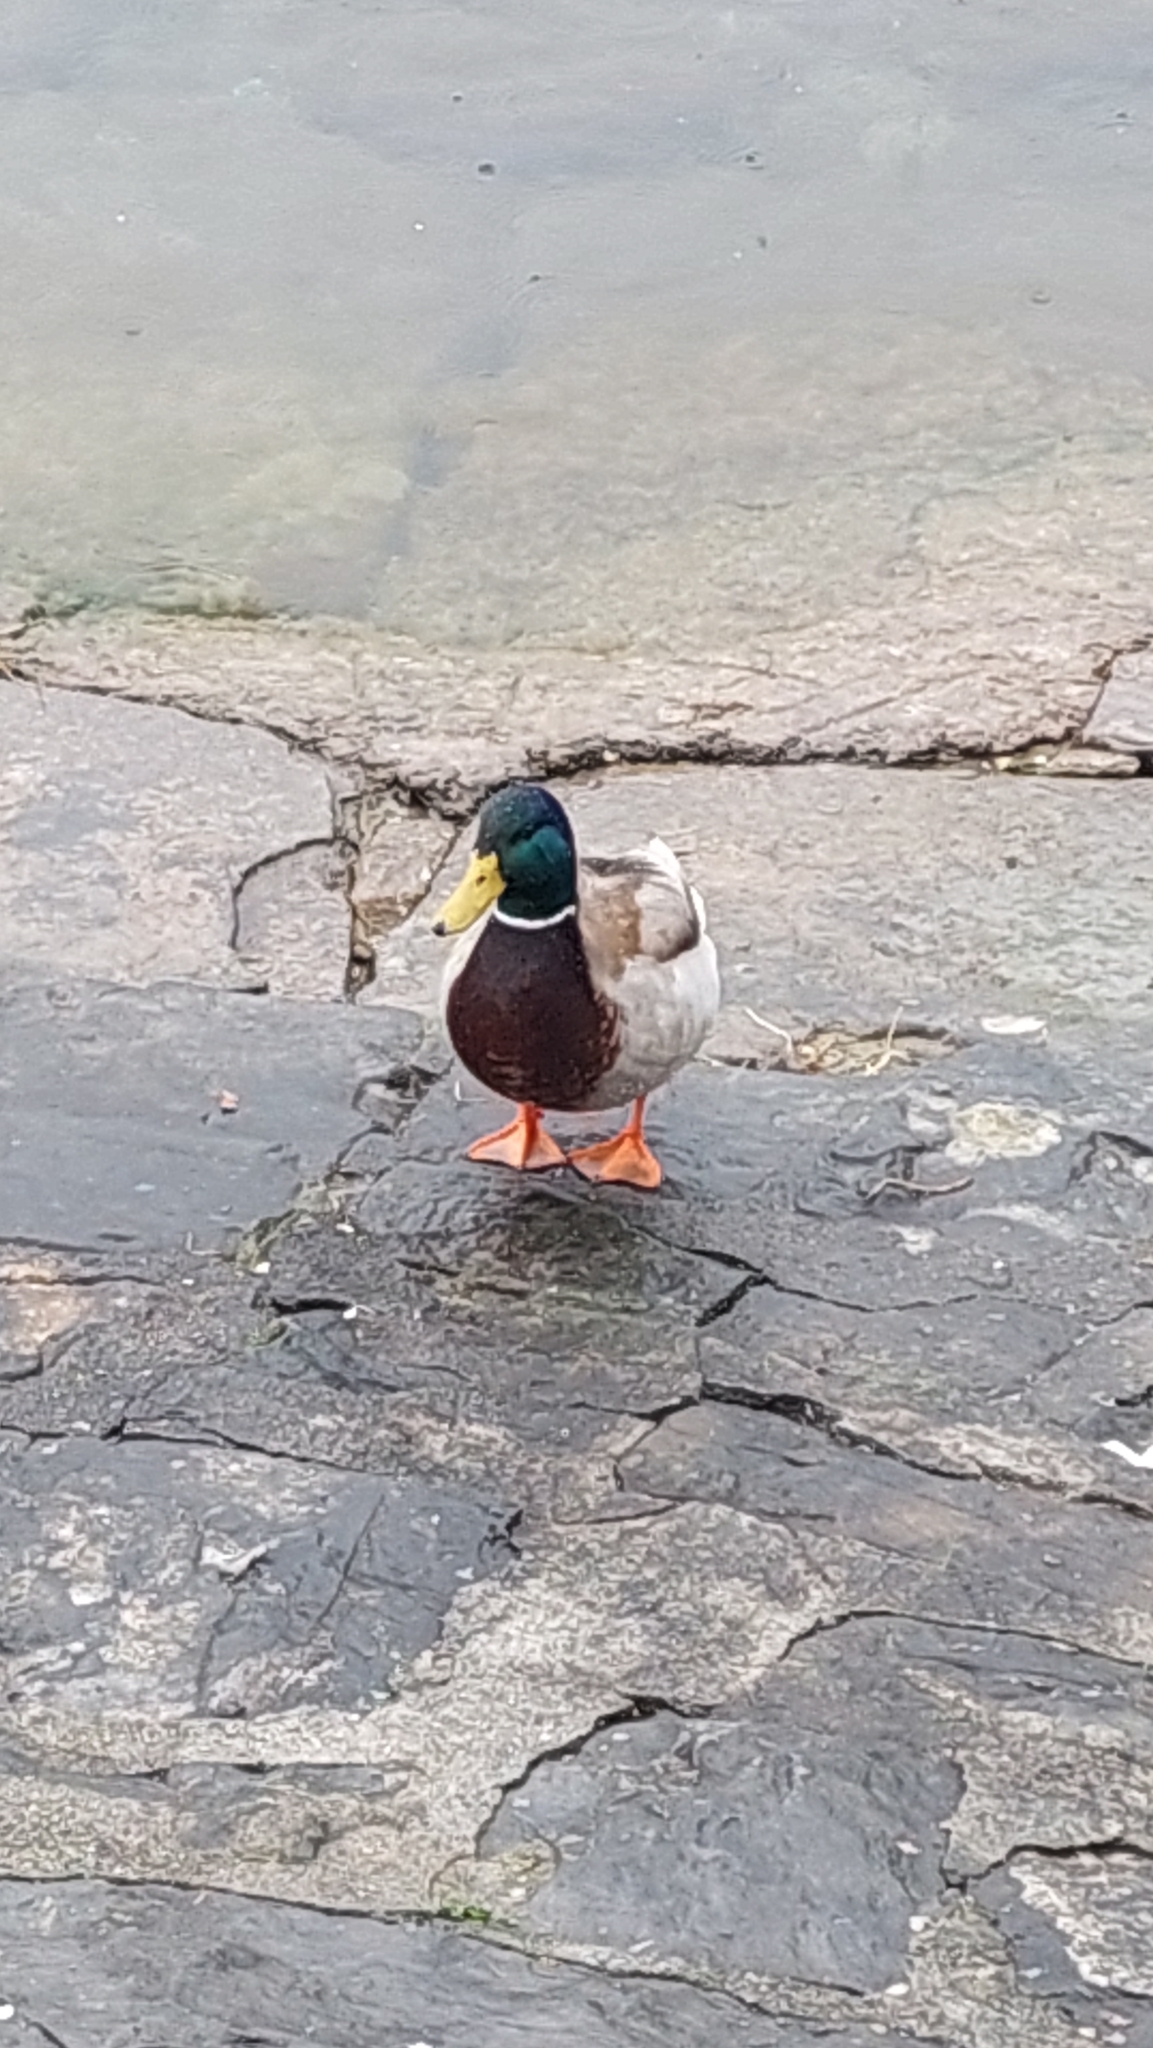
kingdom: Animalia
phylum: Chordata
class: Aves
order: Anseriformes
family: Anatidae
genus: Anas
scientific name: Anas platyrhynchos
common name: Mallard
